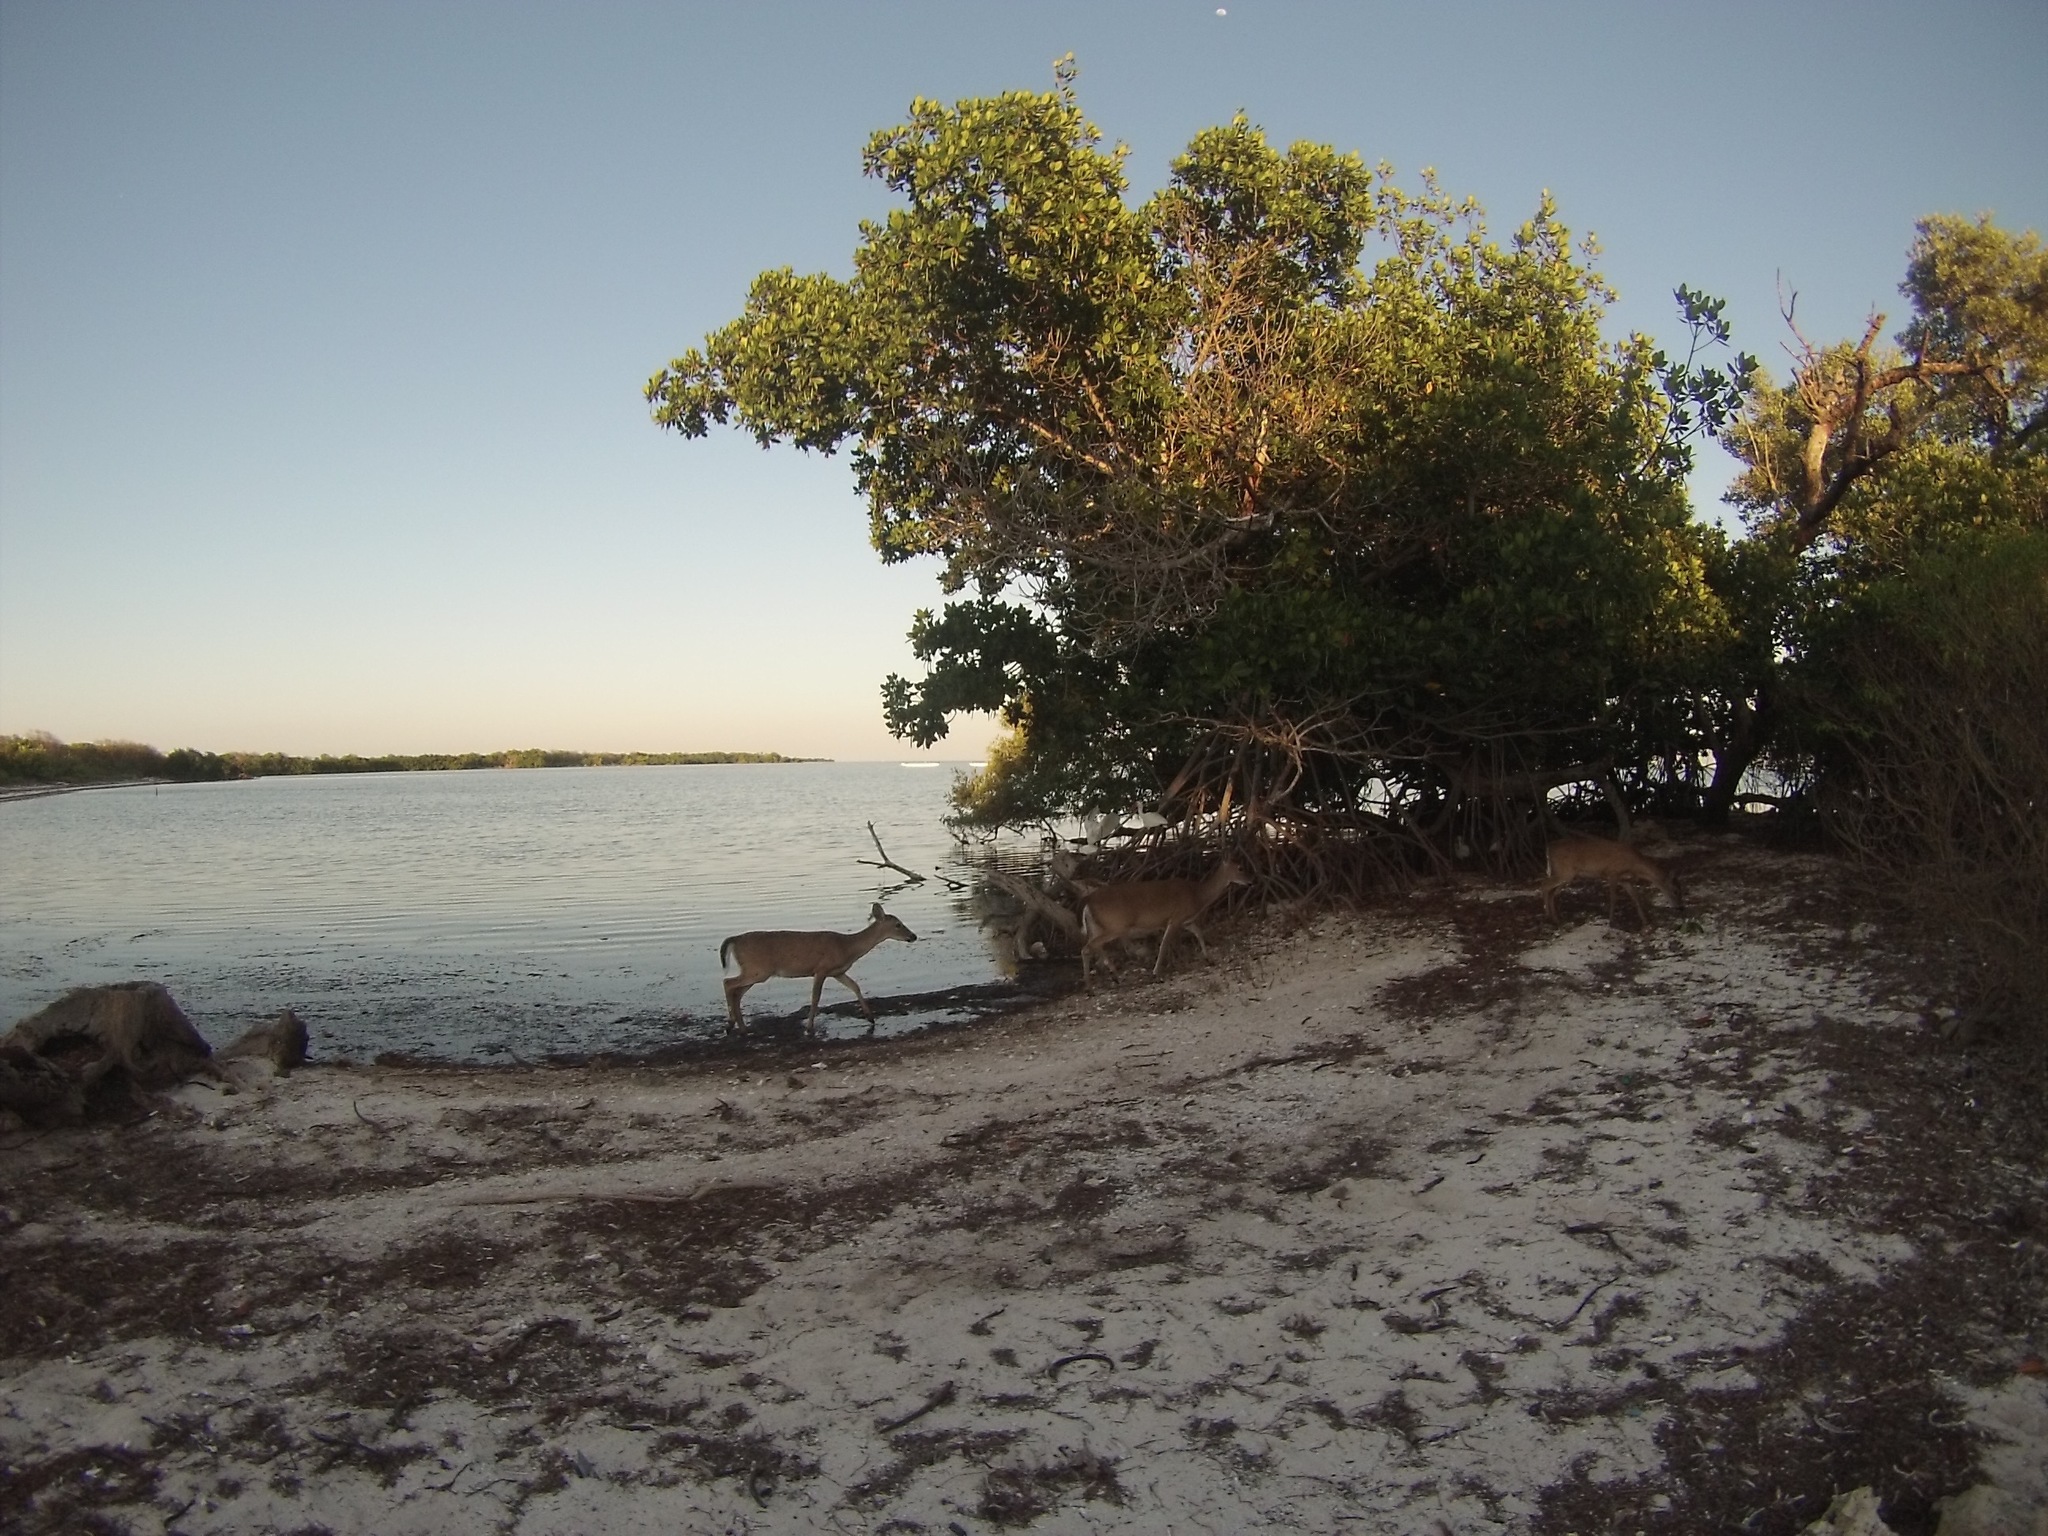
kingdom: Animalia
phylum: Chordata
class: Mammalia
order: Artiodactyla
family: Cervidae
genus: Odocoileus
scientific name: Odocoileus virginianus
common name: White-tailed deer
